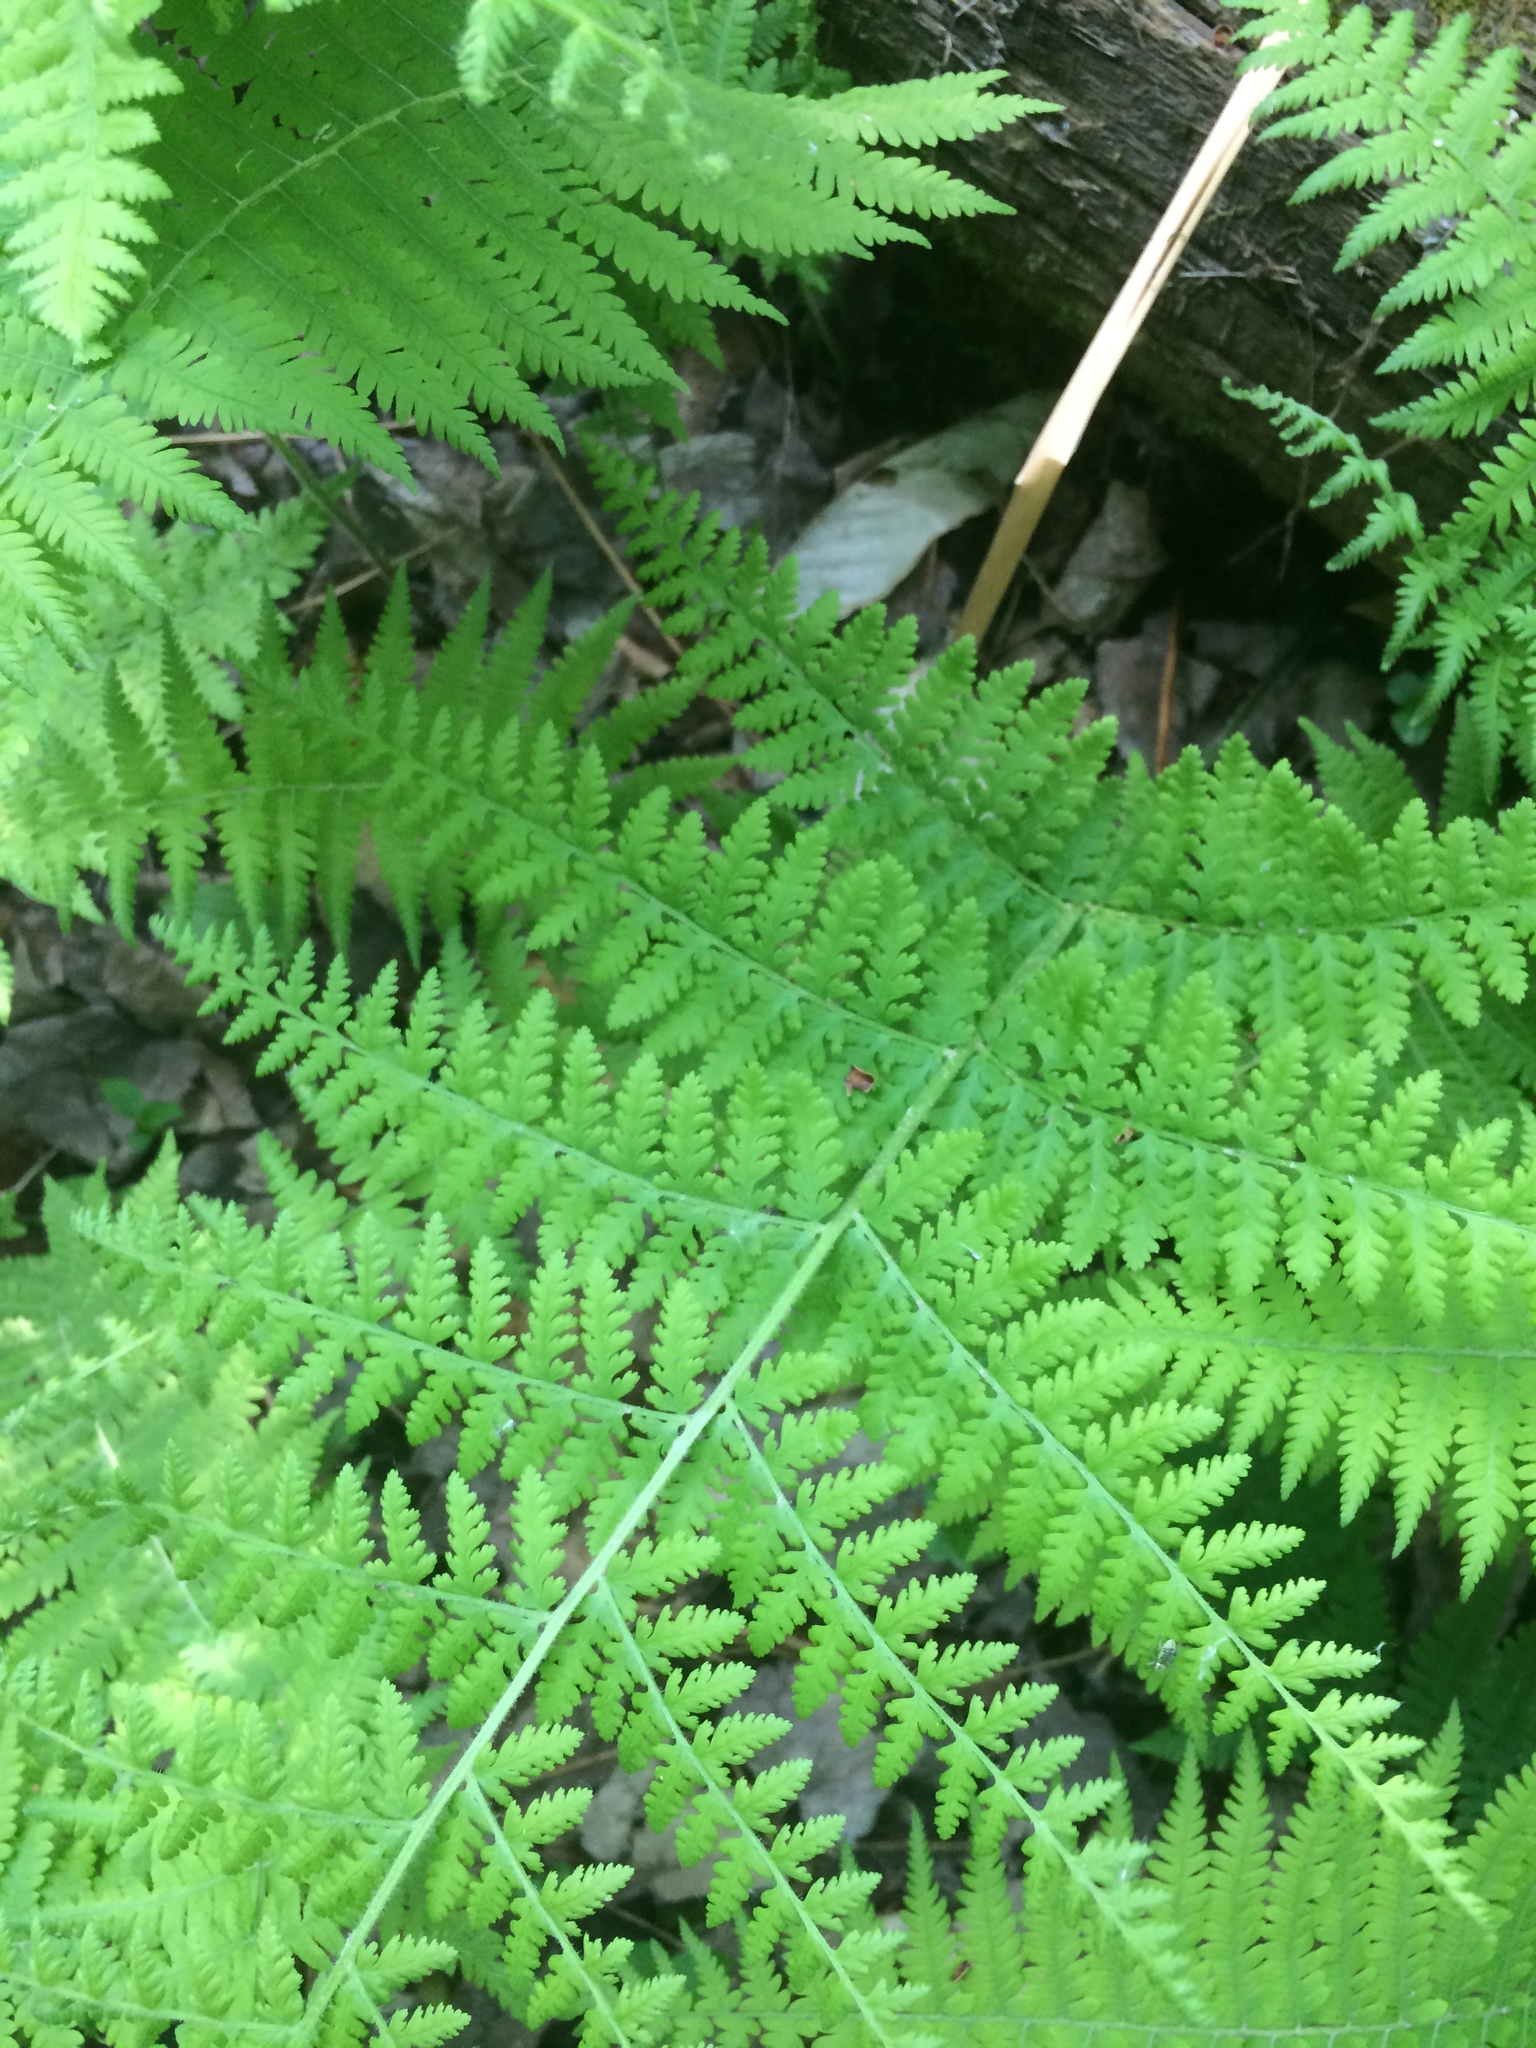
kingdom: Plantae
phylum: Tracheophyta
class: Polypodiopsida
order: Polypodiales
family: Dennstaedtiaceae
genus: Sitobolium
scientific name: Sitobolium punctilobum
